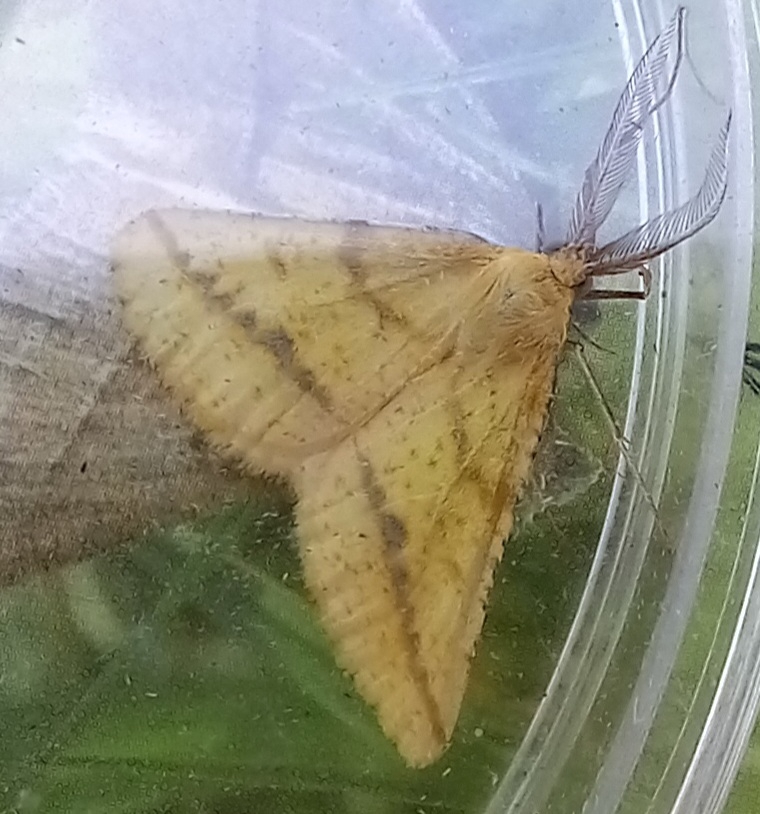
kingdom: Animalia
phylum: Arthropoda
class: Insecta
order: Lepidoptera
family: Geometridae
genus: Aspitates
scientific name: Aspitates ochrearia
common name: Yellow belle
